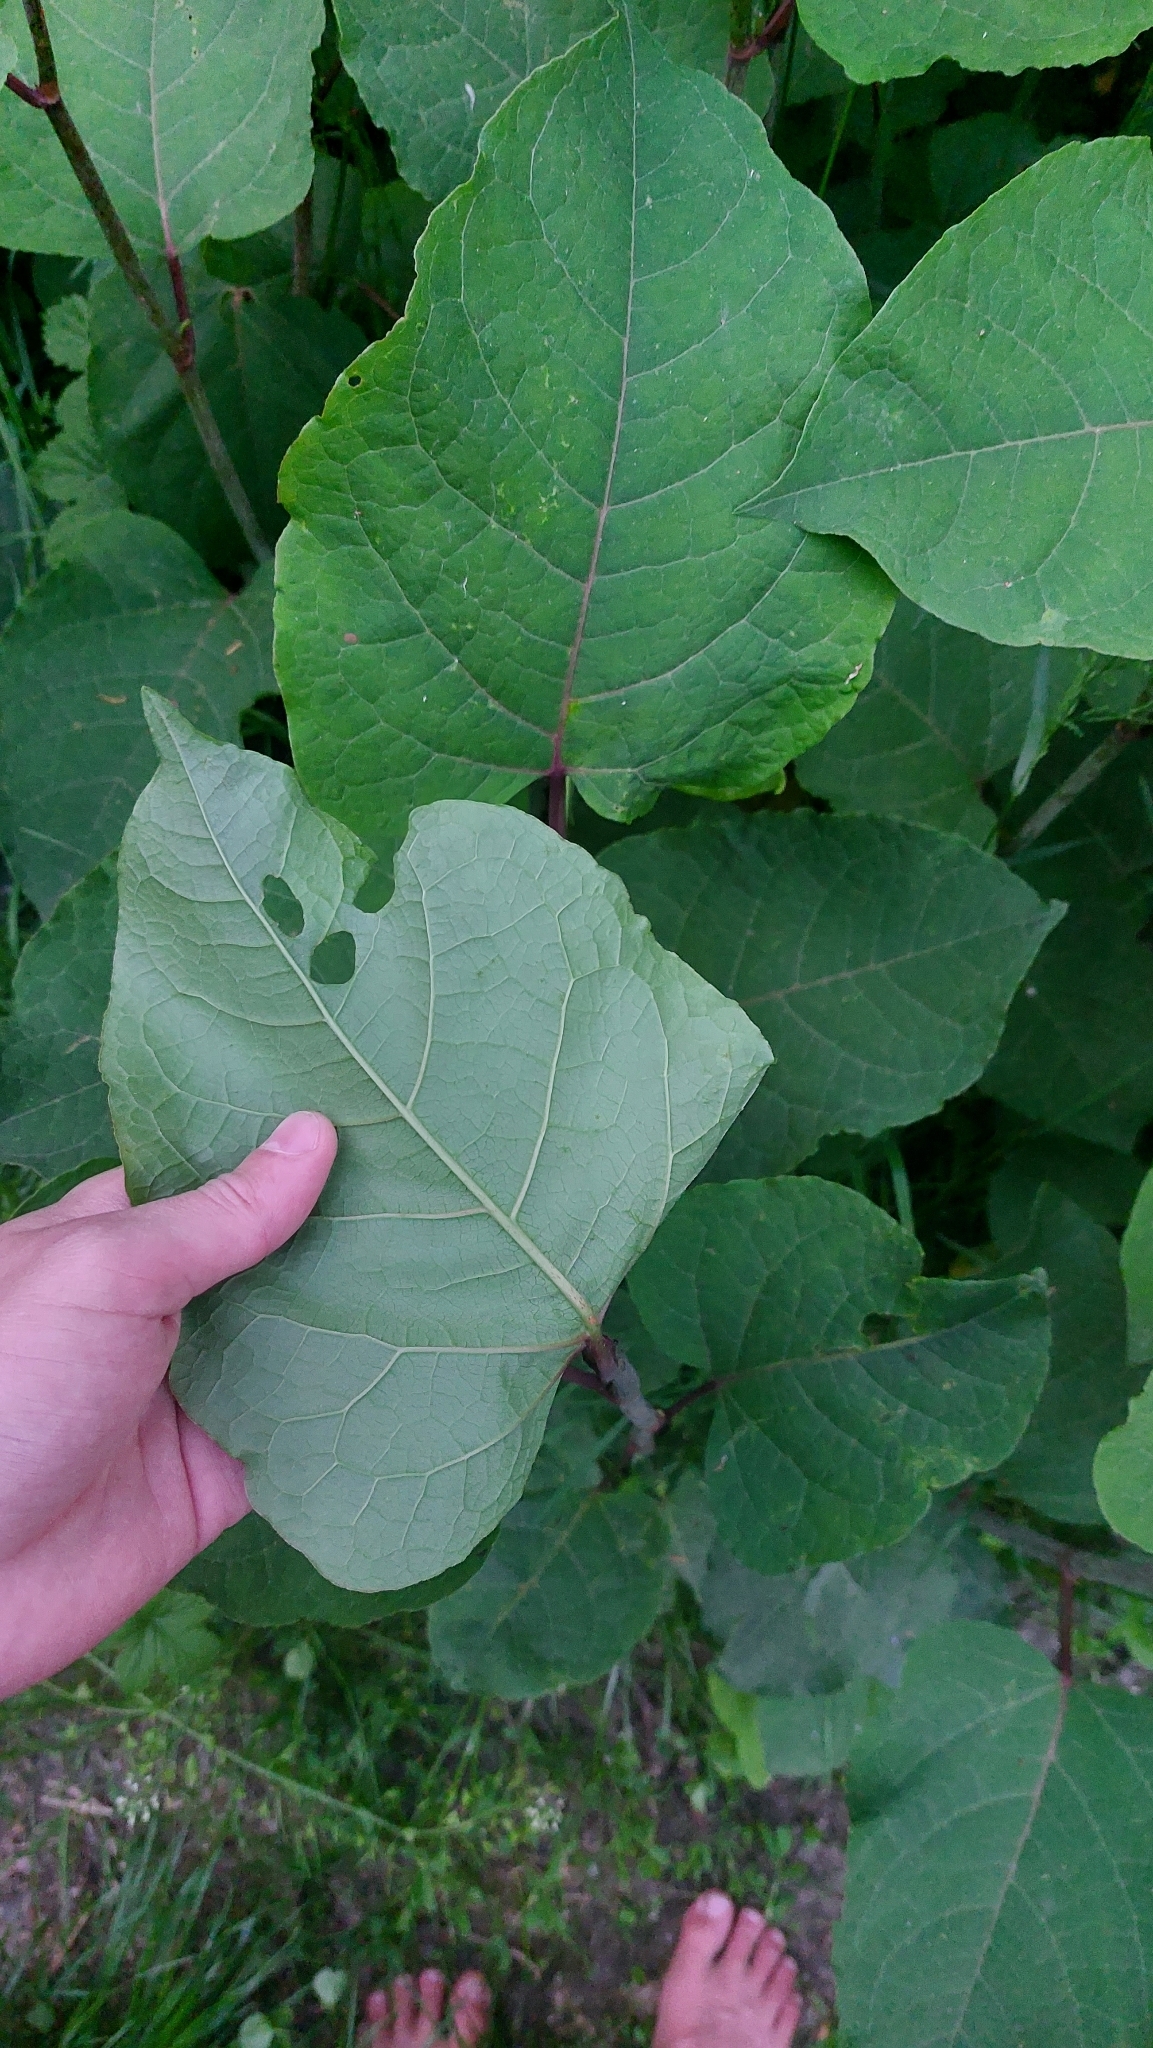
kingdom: Plantae
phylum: Tracheophyta
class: Magnoliopsida
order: Caryophyllales
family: Polygonaceae
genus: Reynoutria
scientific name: Reynoutria bohemica
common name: Bohemian knotweed
